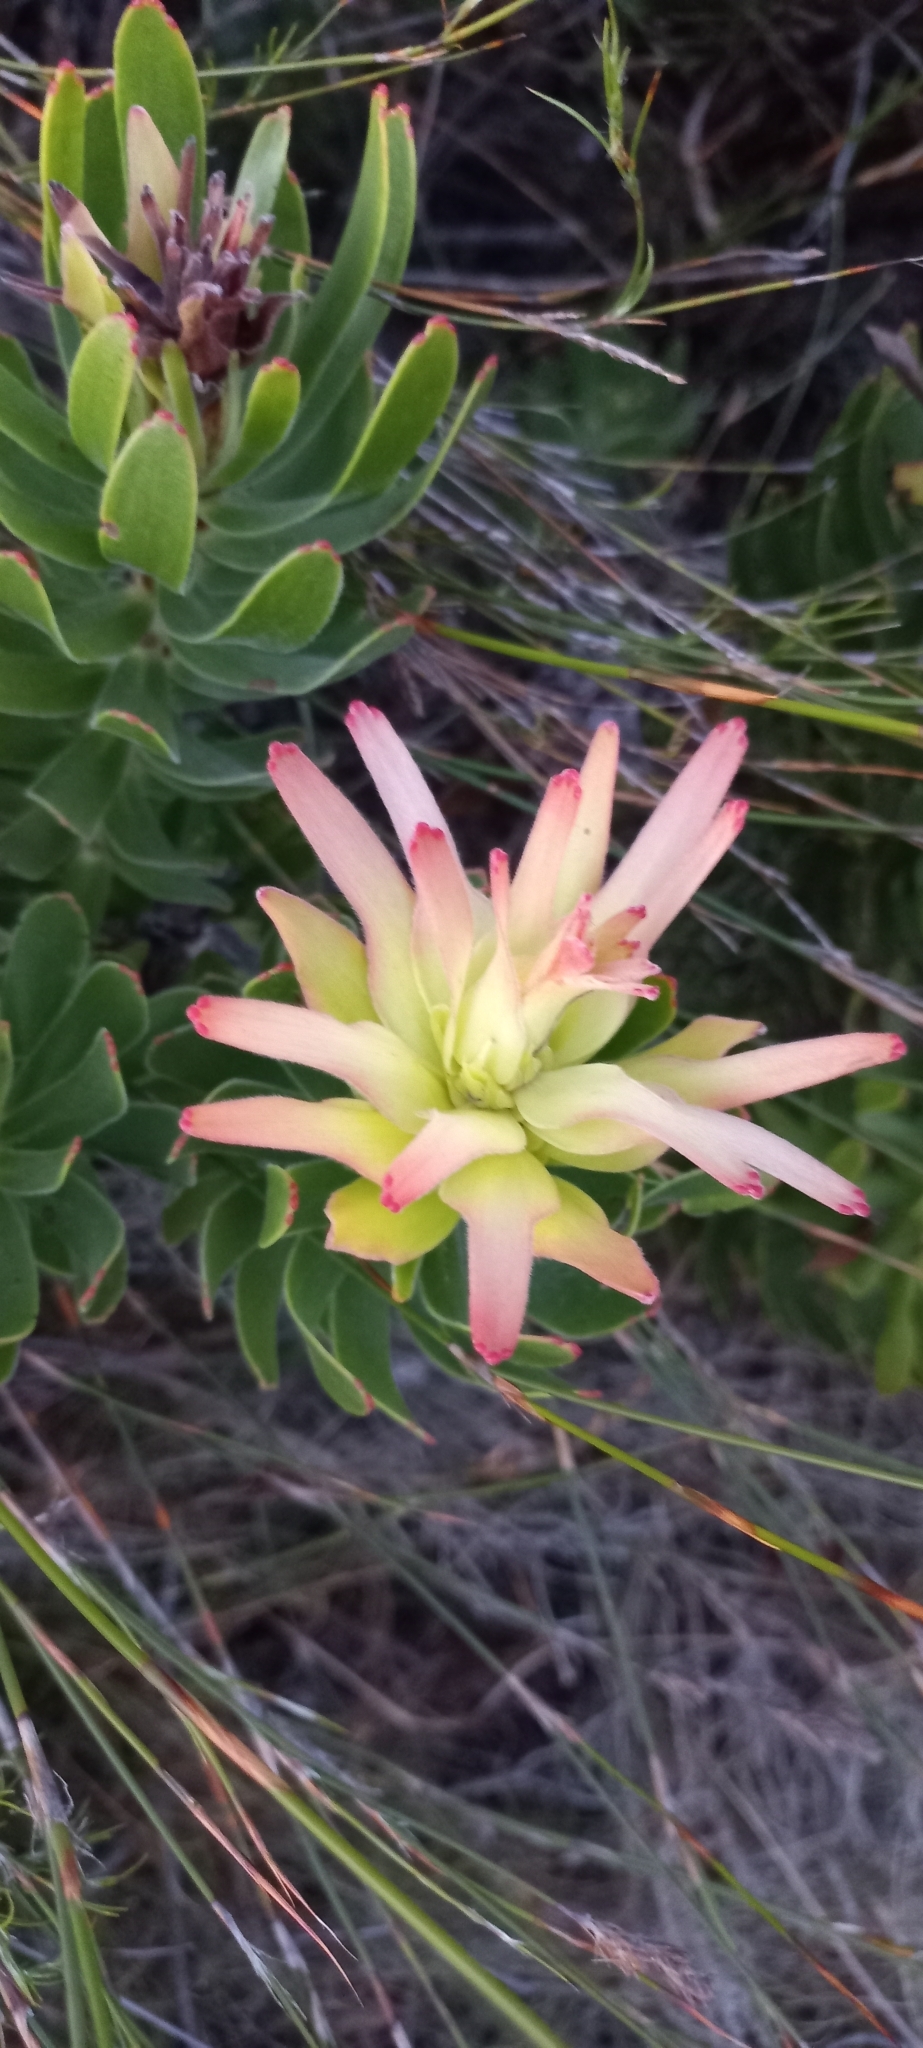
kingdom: Plantae
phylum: Tracheophyta
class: Magnoliopsida
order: Proteales
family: Proteaceae
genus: Mimetes
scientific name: Mimetes cucullatus
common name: Common pagoda
